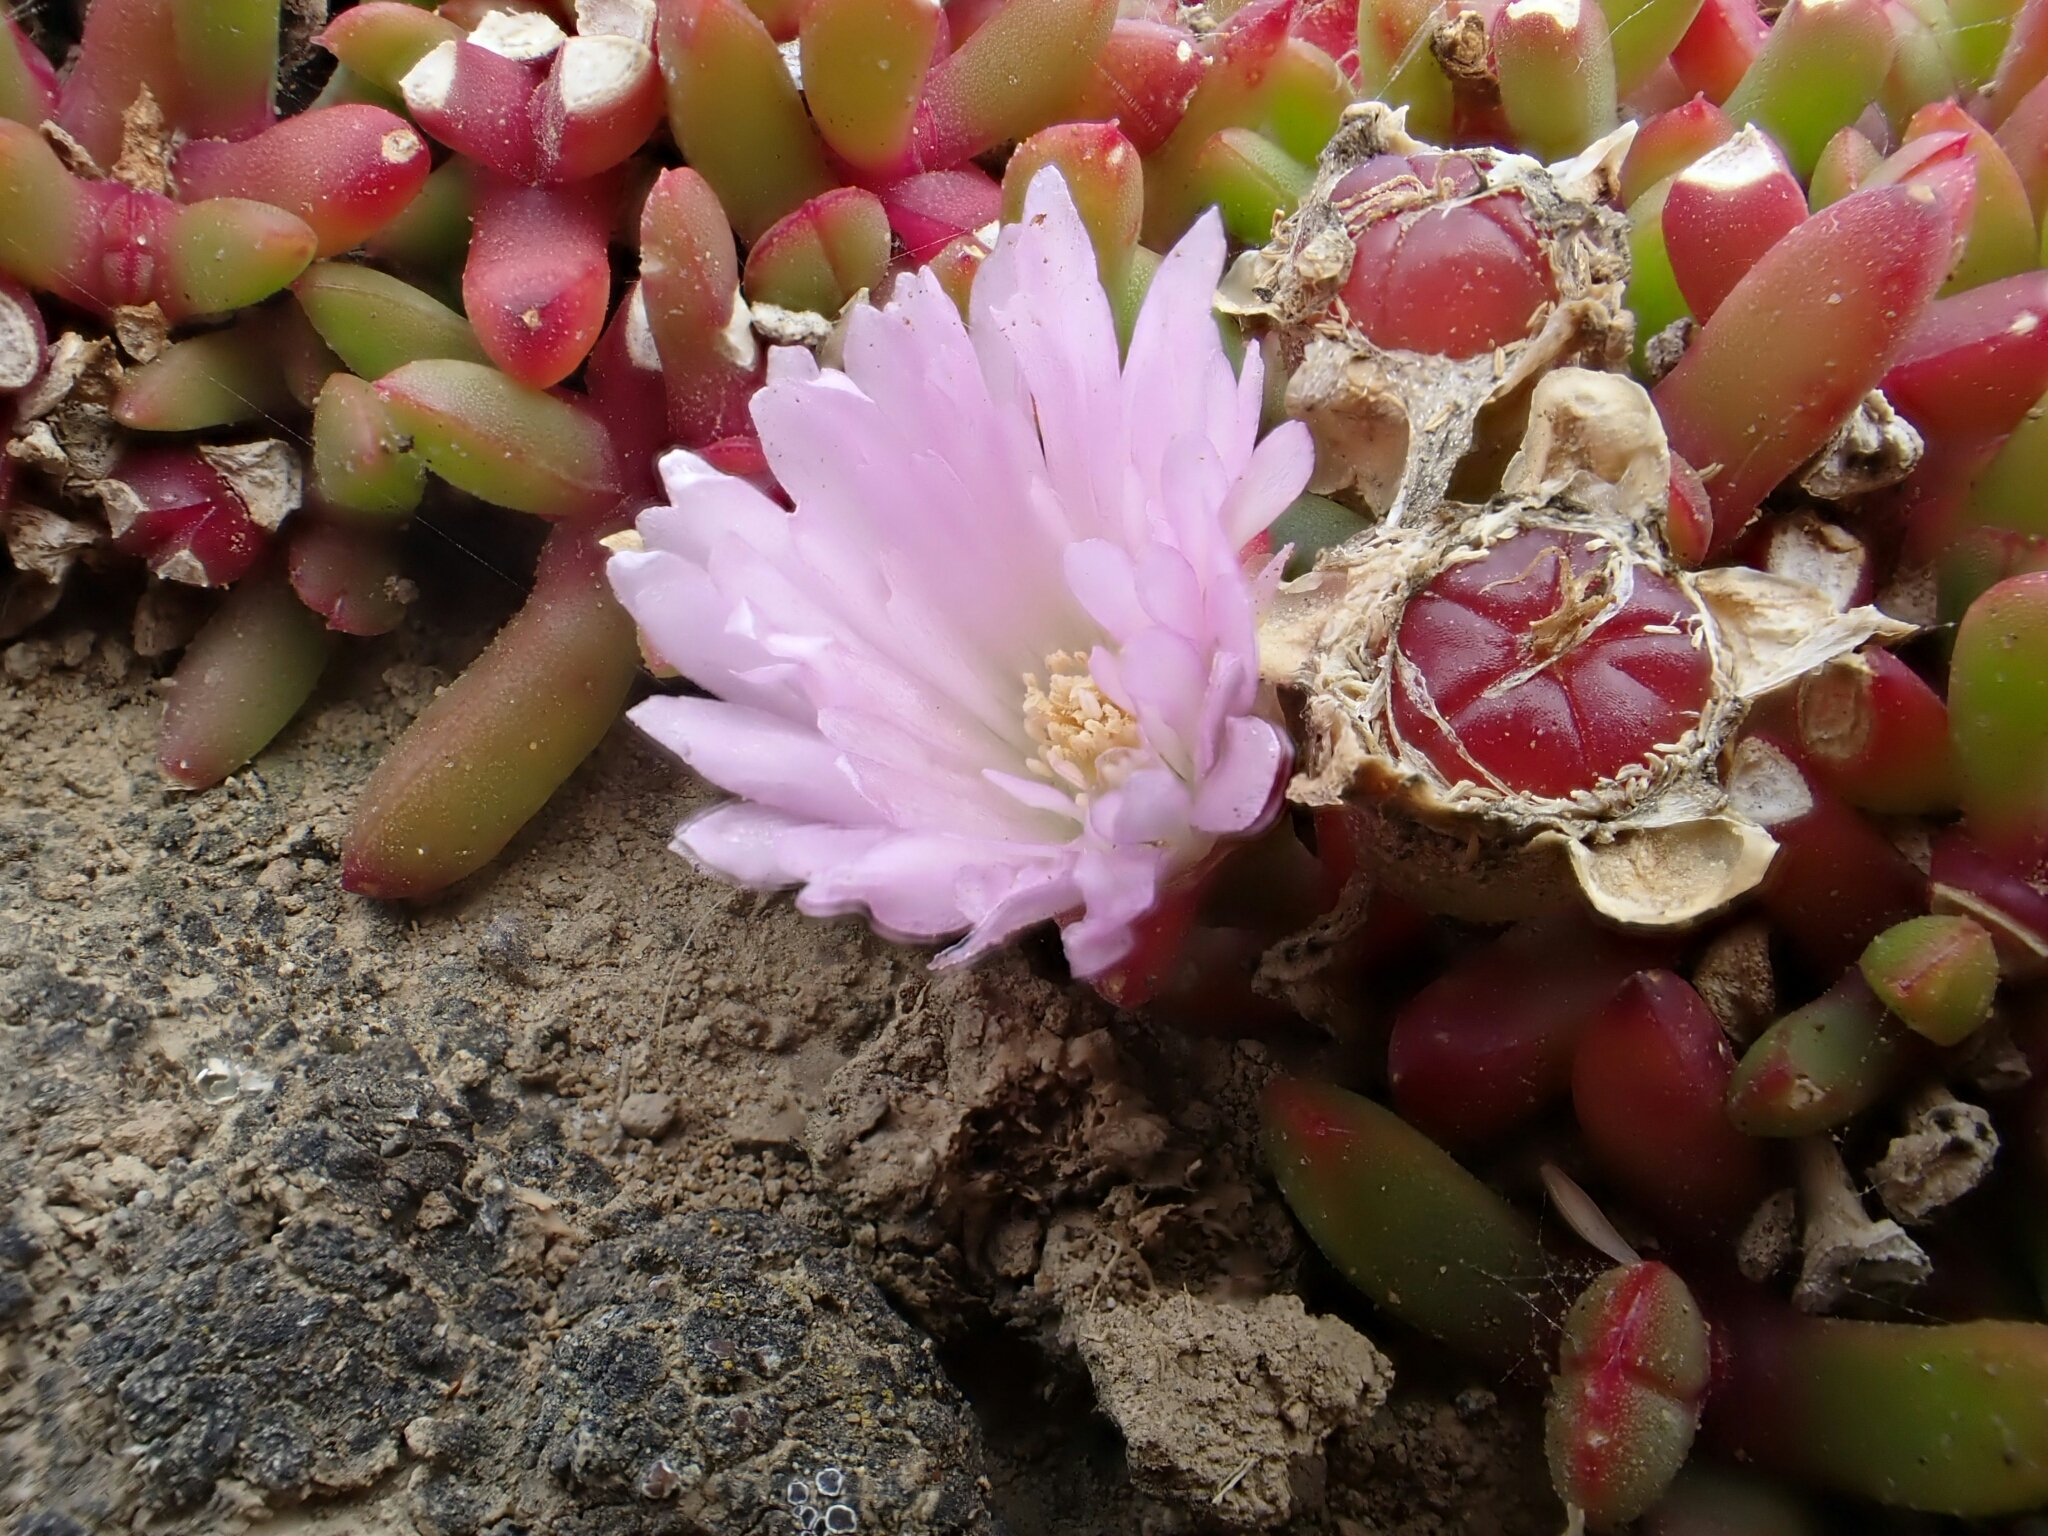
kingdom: Plantae
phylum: Tracheophyta
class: Magnoliopsida
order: Caryophyllales
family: Aizoaceae
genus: Disphyma
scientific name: Disphyma australe
